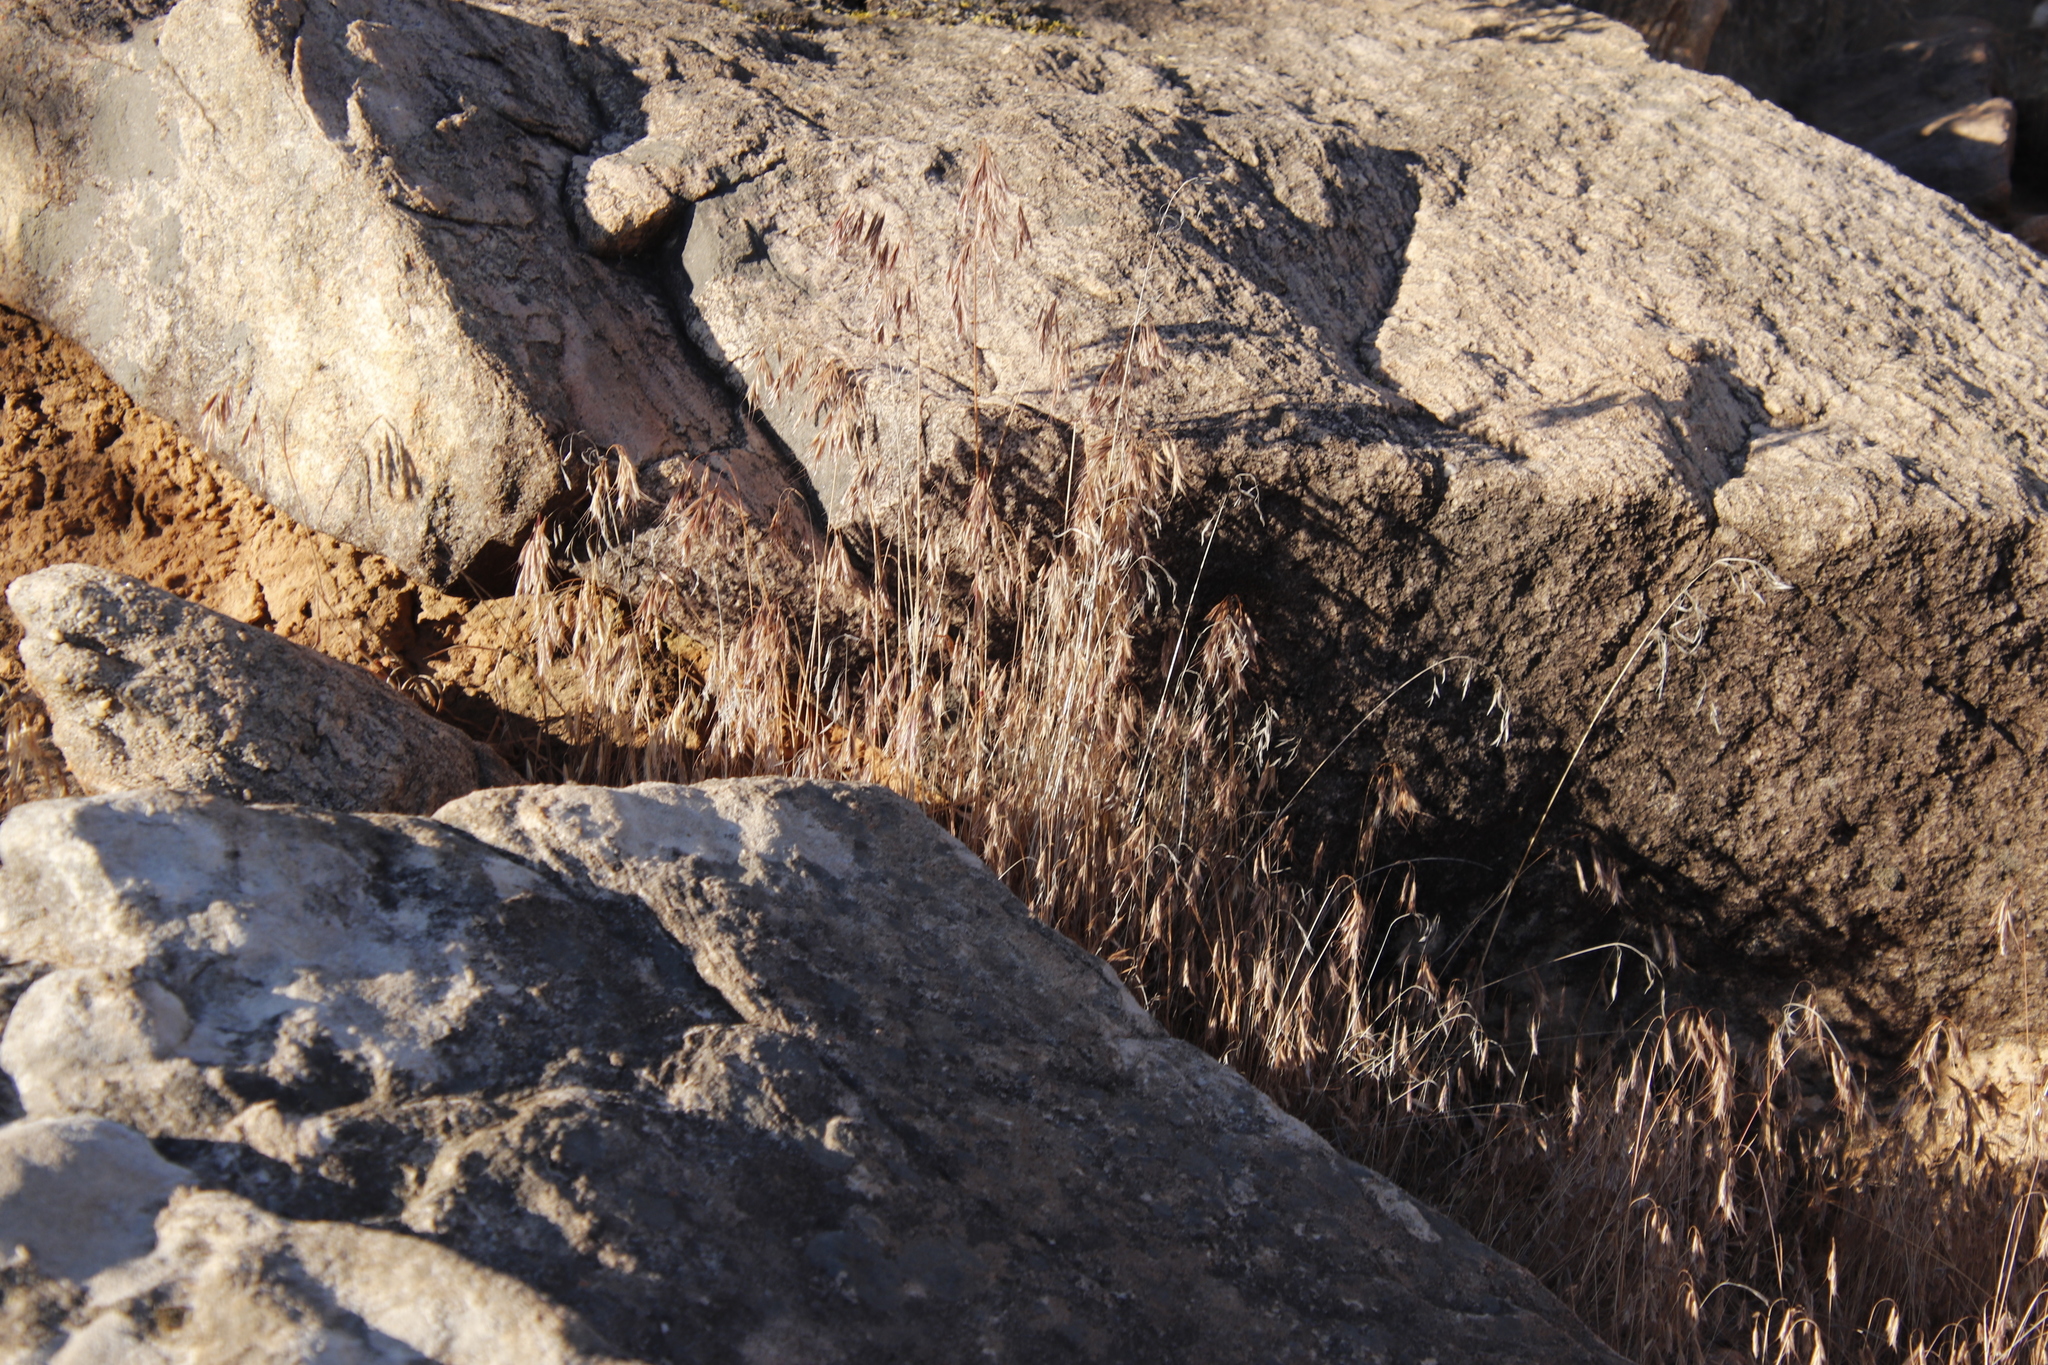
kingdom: Plantae
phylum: Tracheophyta
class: Liliopsida
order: Poales
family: Poaceae
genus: Bromus
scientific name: Bromus tectorum
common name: Cheatgrass
